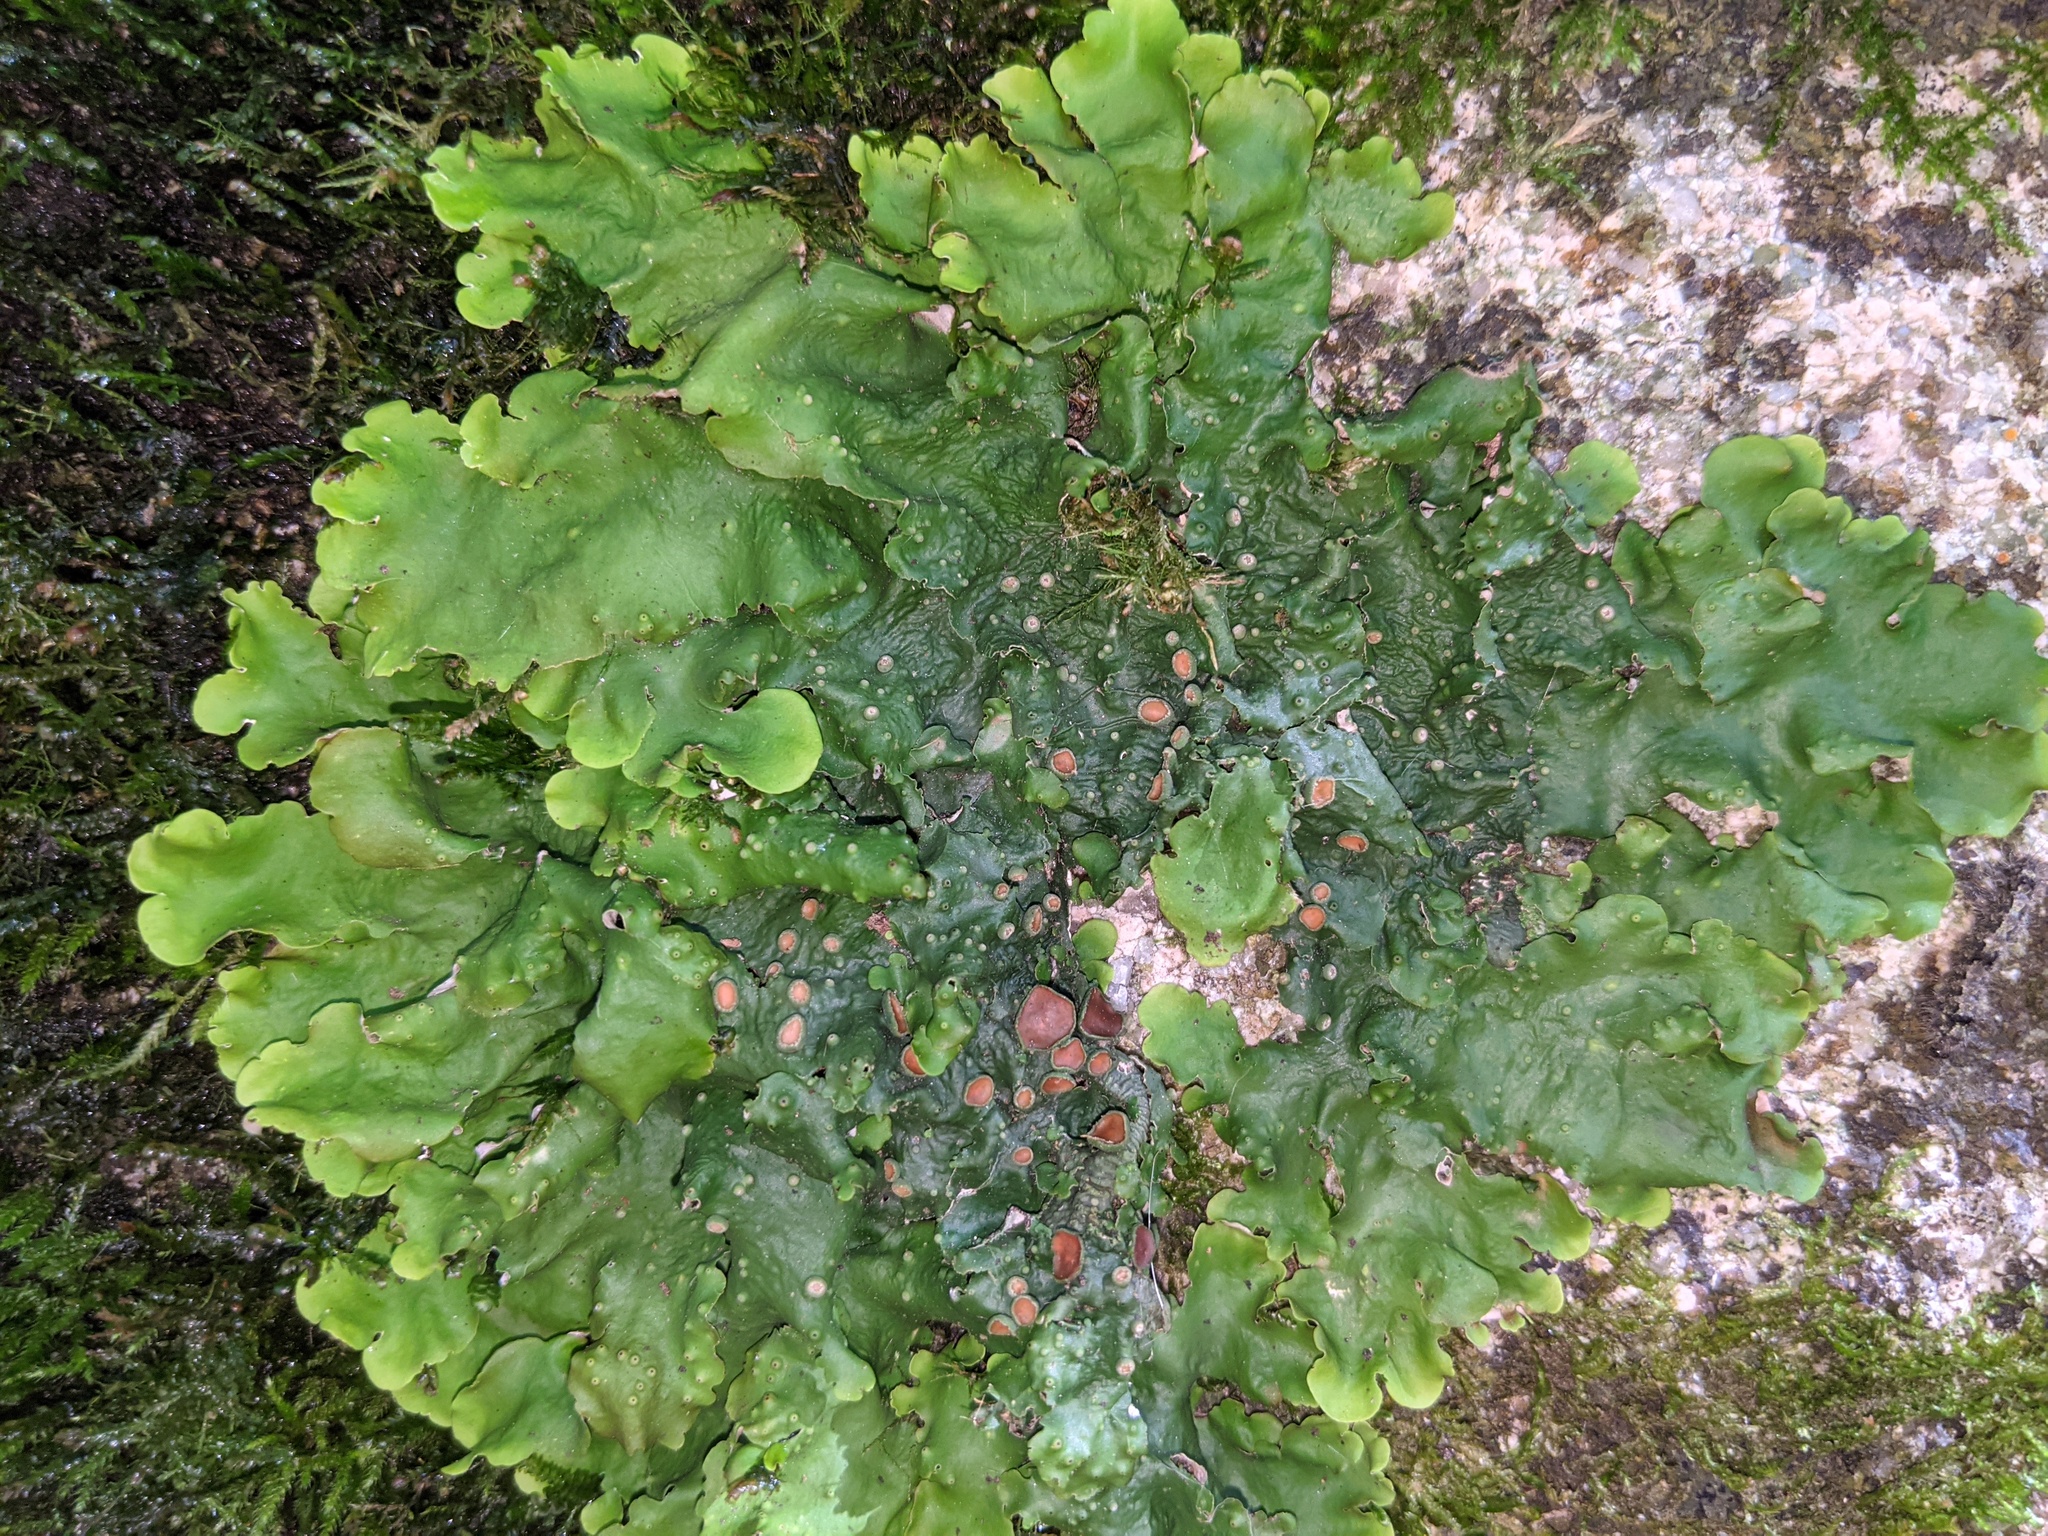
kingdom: Fungi
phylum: Ascomycota
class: Lecanoromycetes
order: Peltigerales
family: Lobariaceae
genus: Ricasolia
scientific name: Ricasolia virens
